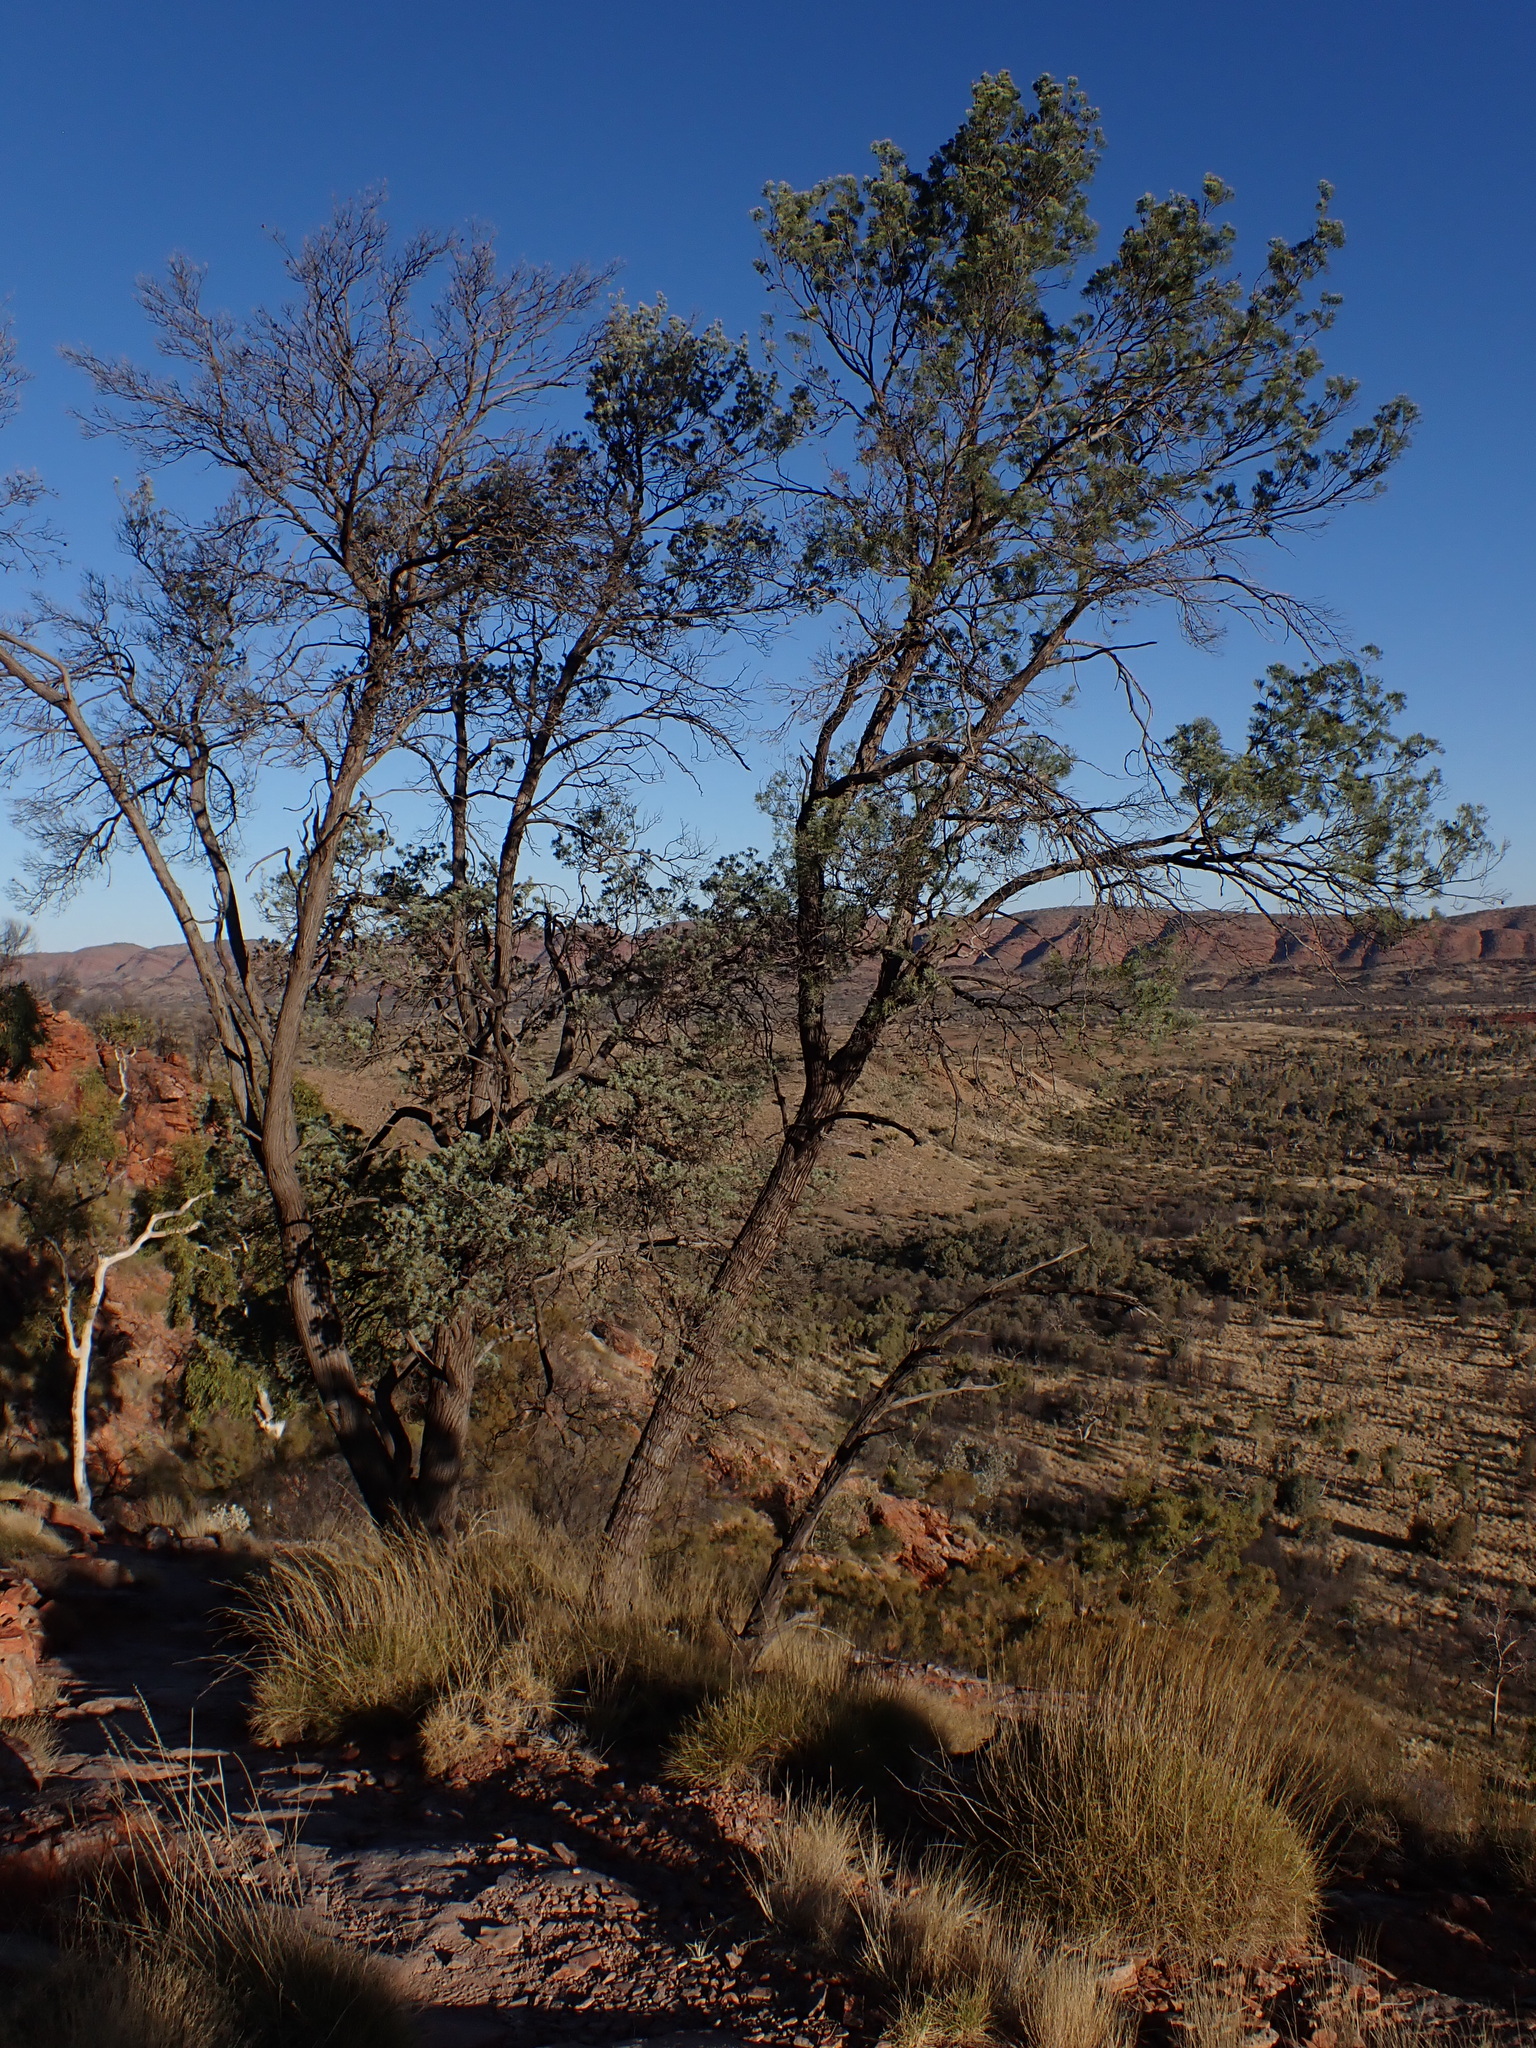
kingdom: Plantae
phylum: Tracheophyta
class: Pinopsida
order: Pinales
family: Cupressaceae
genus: Callitris
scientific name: Callitris columellaris
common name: White cypress-pine
